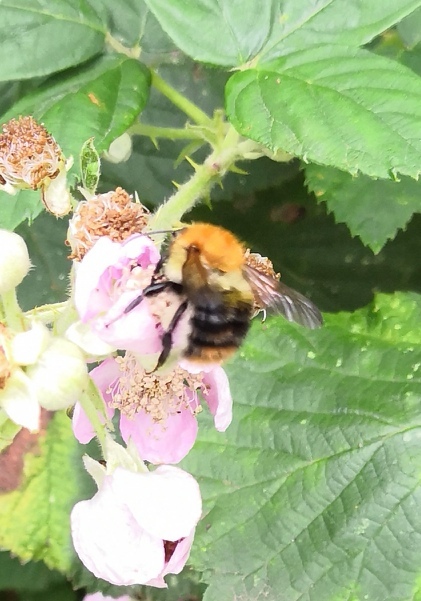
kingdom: Animalia
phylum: Arthropoda
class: Insecta
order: Hymenoptera
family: Apidae
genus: Bombus
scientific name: Bombus pascuorum
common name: Common carder bee
